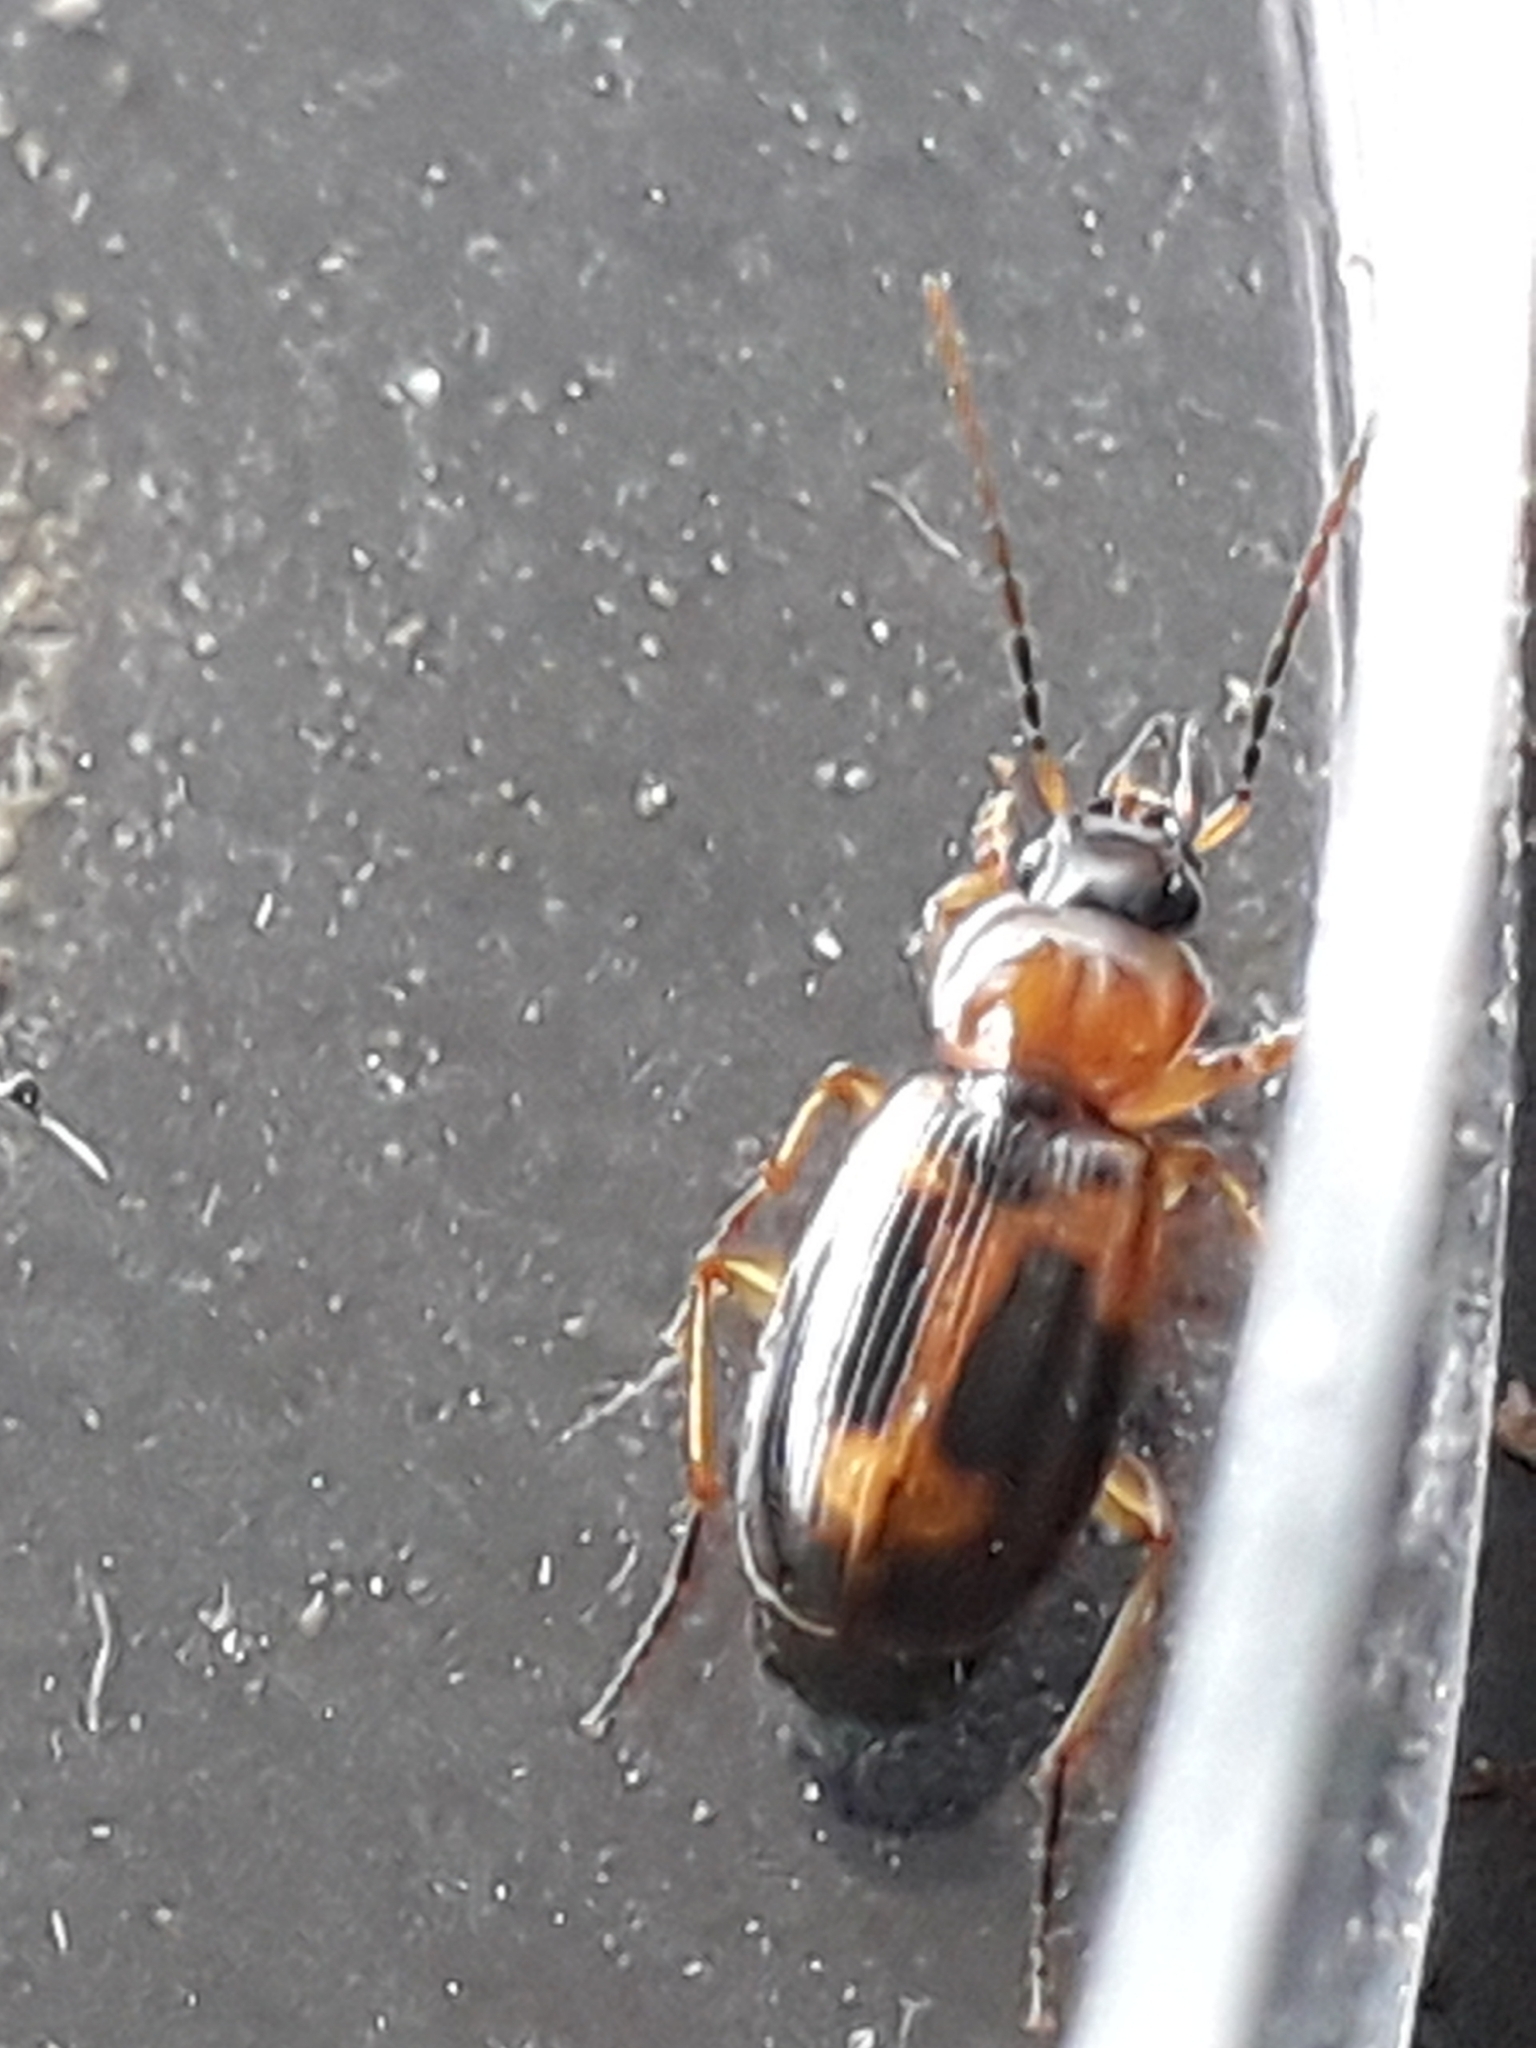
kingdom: Animalia
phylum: Arthropoda
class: Insecta
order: Coleoptera
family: Carabidae
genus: Badister
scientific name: Badister bullatus
